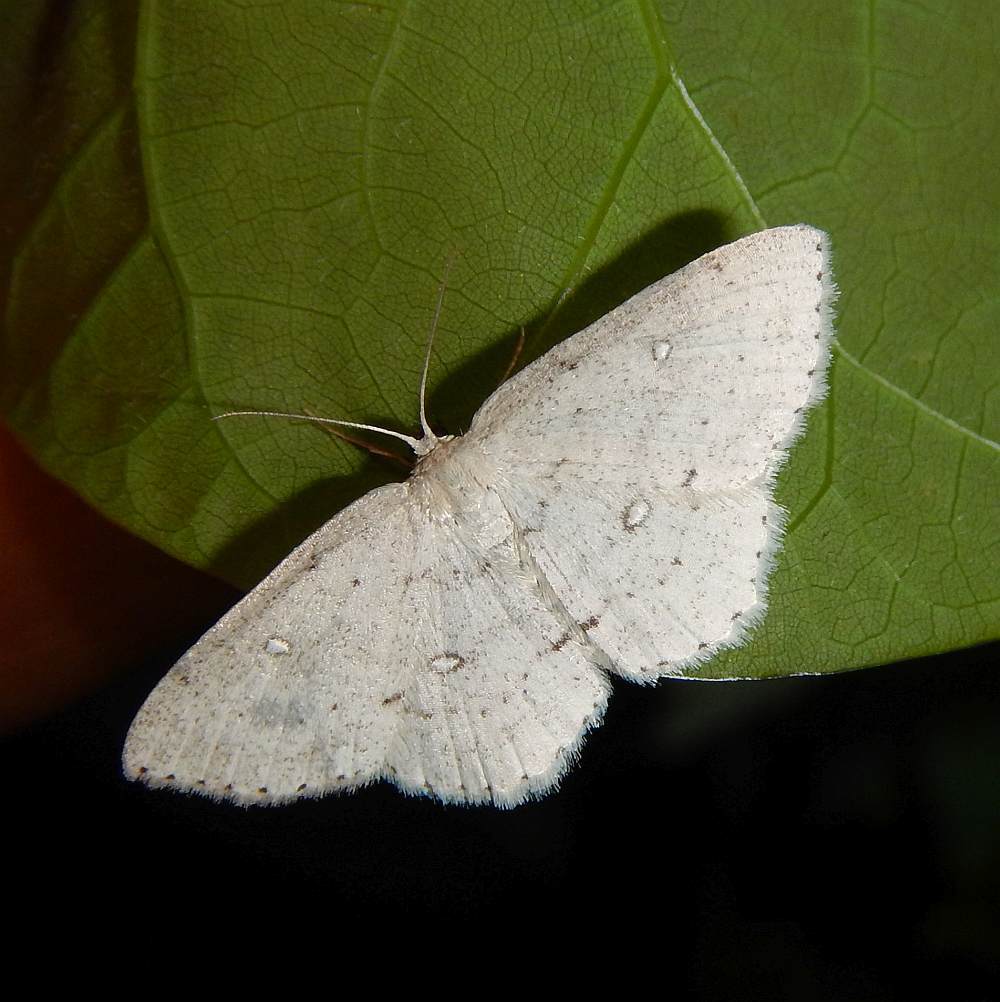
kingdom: Animalia
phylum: Arthropoda
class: Insecta
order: Lepidoptera
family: Geometridae
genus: Cyclophora
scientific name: Cyclophora pendulinaria
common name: Sweet fern geometer
